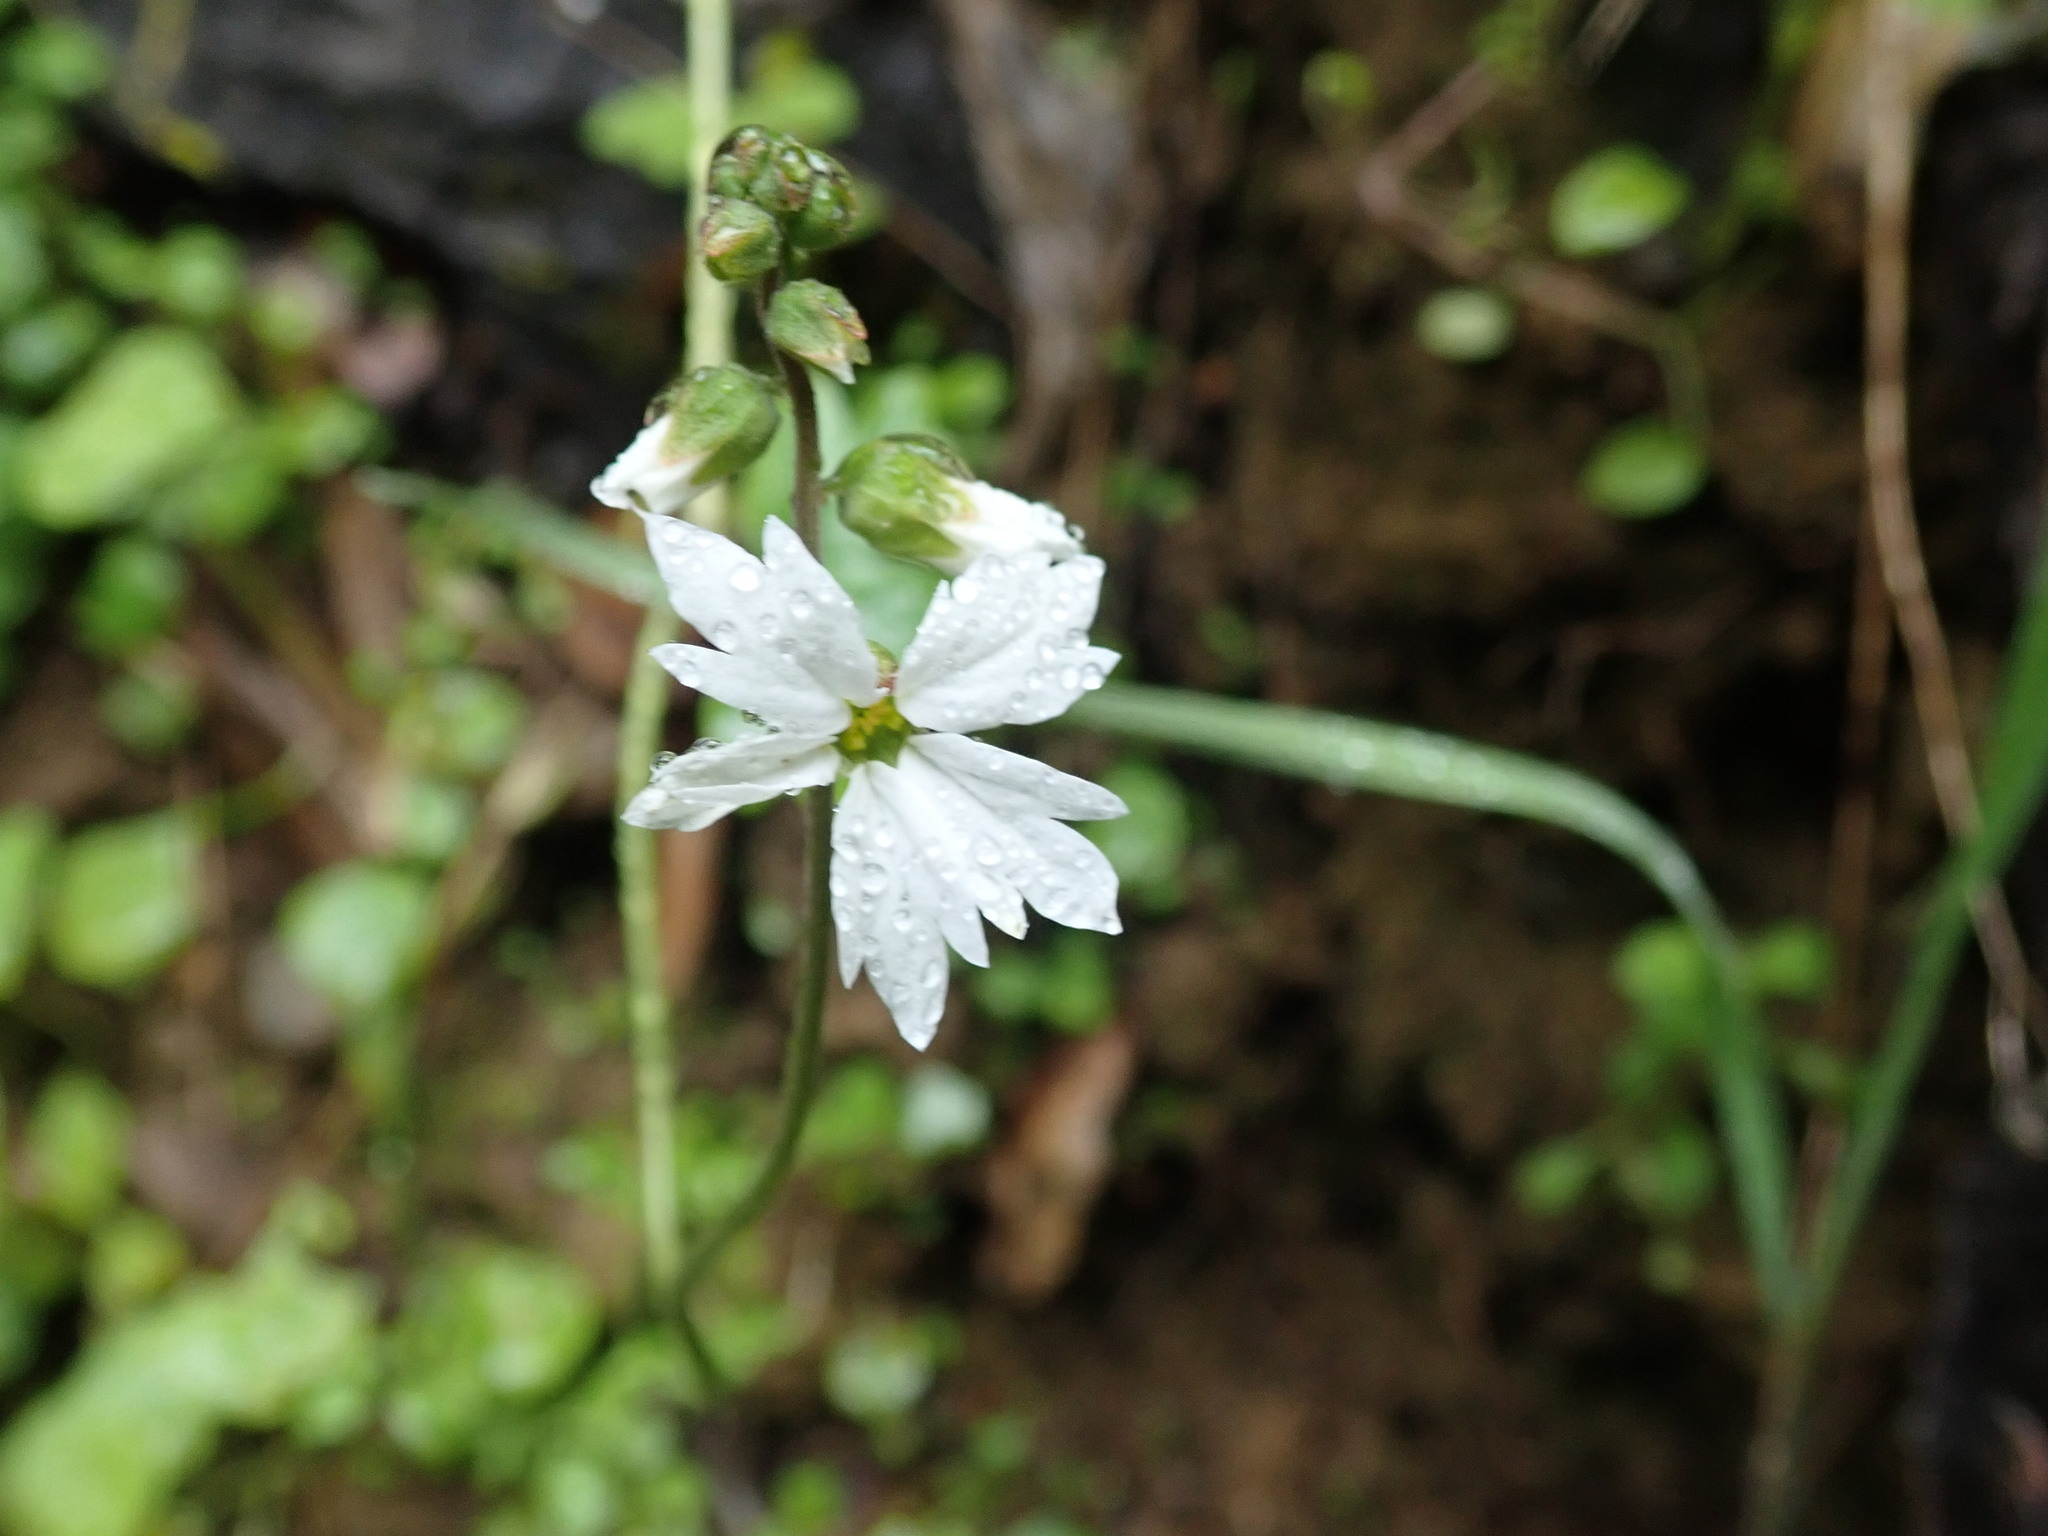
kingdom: Plantae
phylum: Tracheophyta
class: Magnoliopsida
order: Saxifragales
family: Saxifragaceae
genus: Lithophragma
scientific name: Lithophragma heterophyllum
